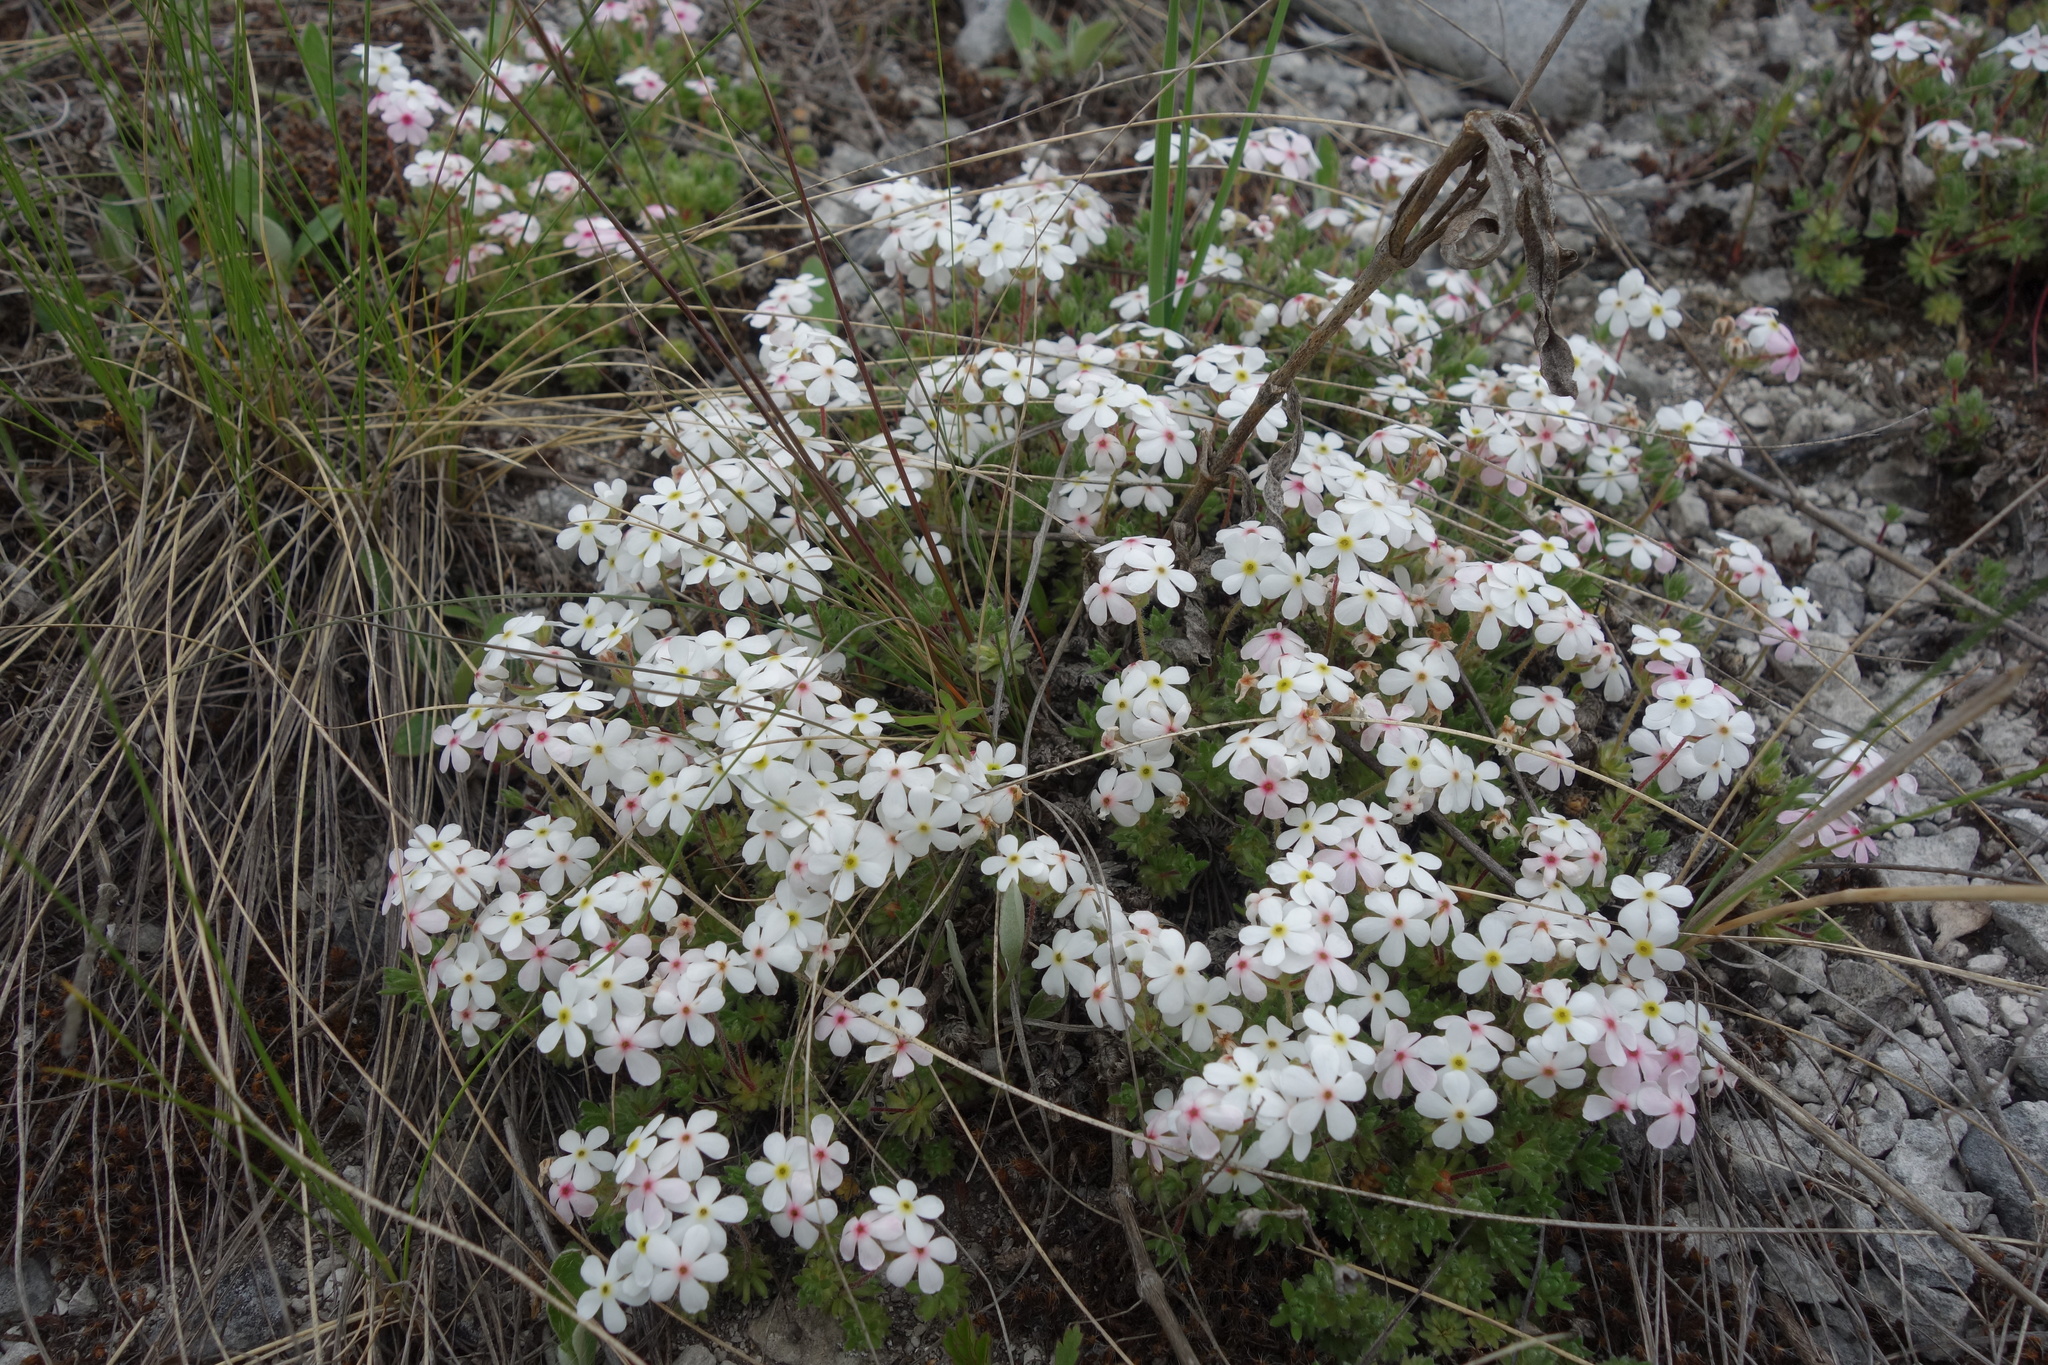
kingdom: Plantae
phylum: Tracheophyta
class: Magnoliopsida
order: Ericales
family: Primulaceae
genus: Androsace
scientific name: Androsace villosa
